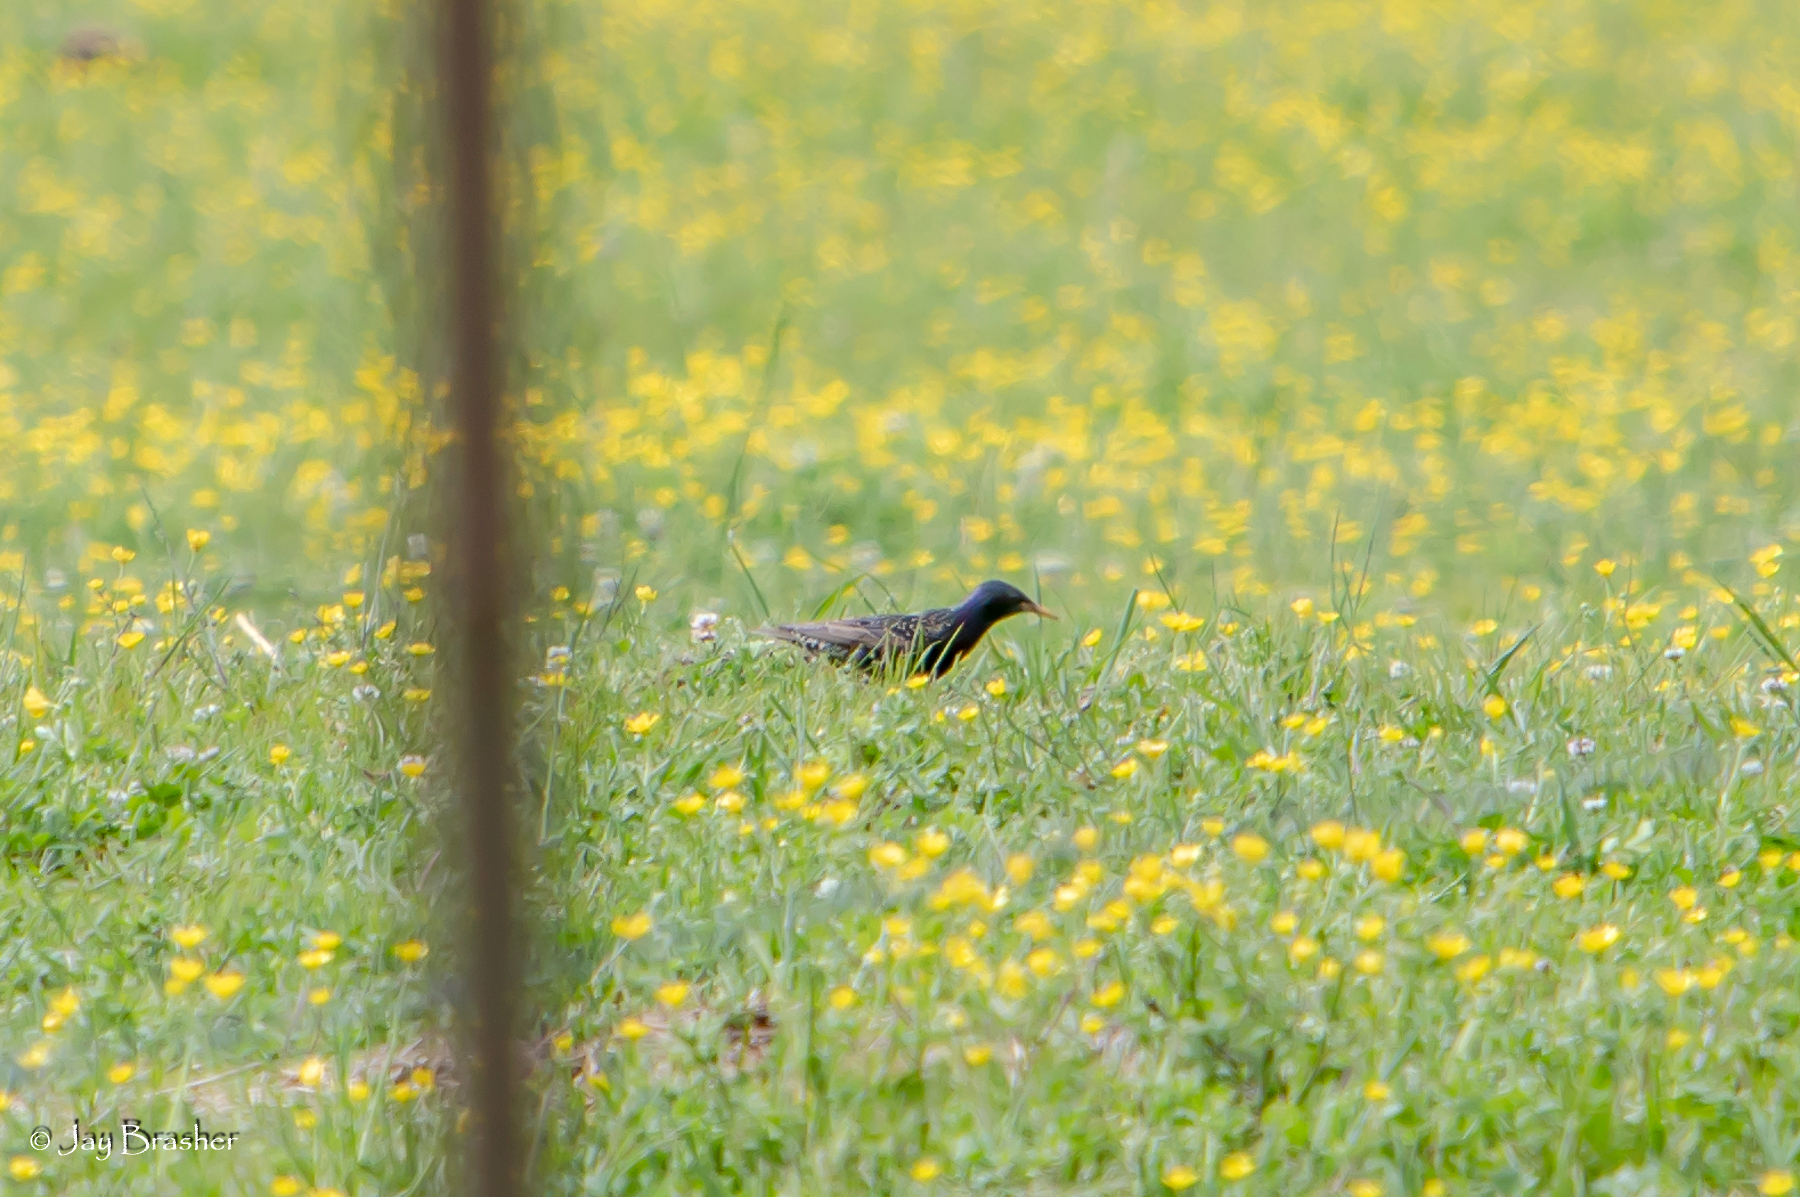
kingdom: Animalia
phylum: Chordata
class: Aves
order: Passeriformes
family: Sturnidae
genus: Sturnus
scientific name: Sturnus vulgaris
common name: Common starling
